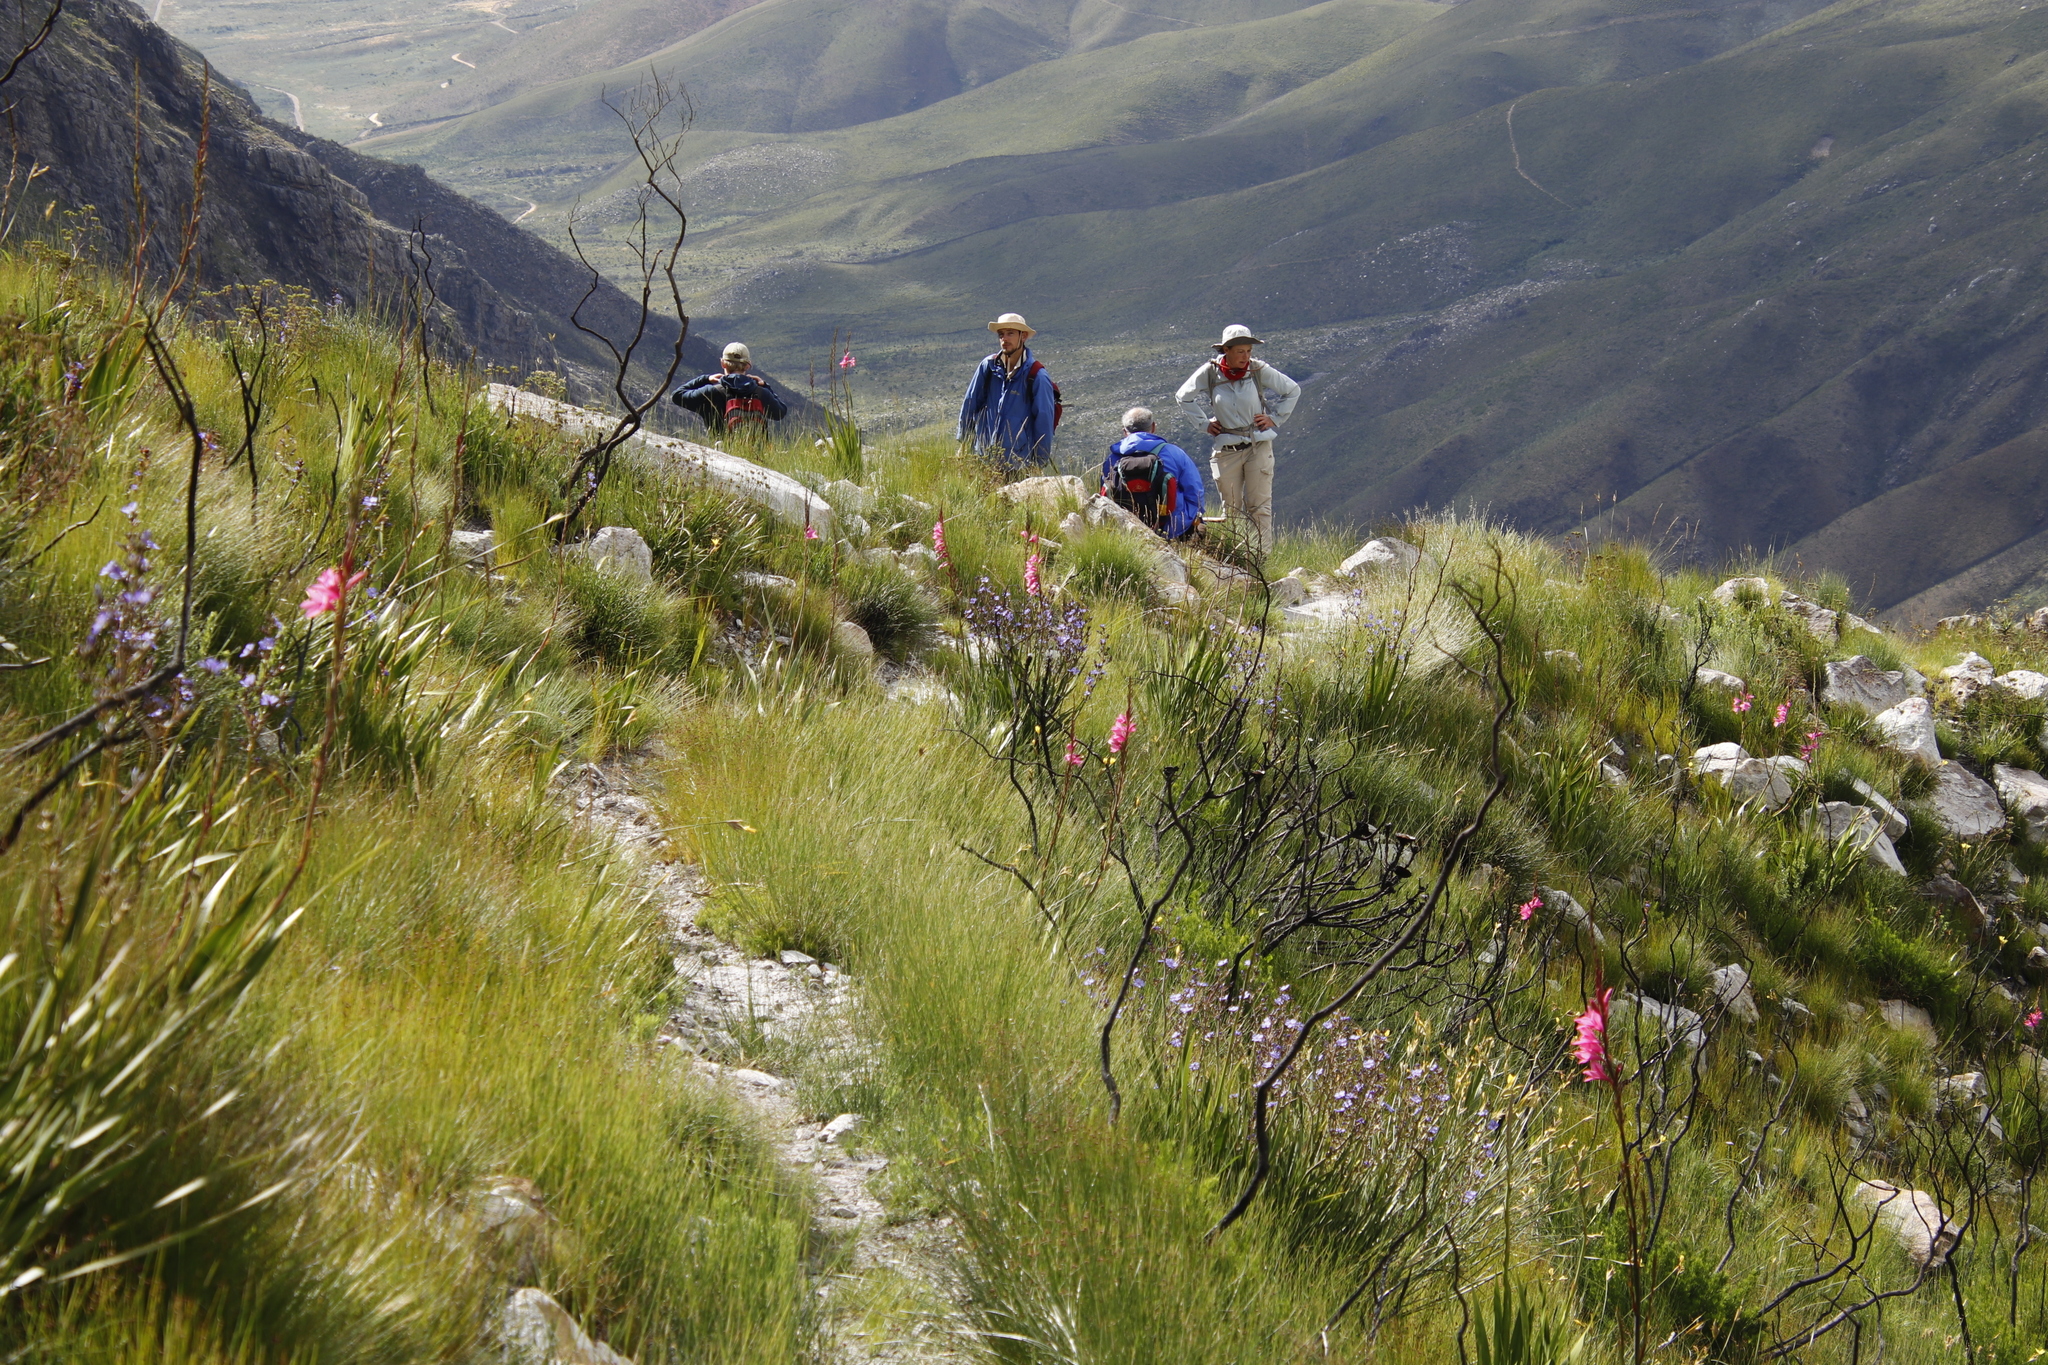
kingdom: Plantae
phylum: Tracheophyta
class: Liliopsida
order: Asparagales
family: Iridaceae
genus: Watsonia
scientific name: Watsonia borbonica
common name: Bugle-lily
